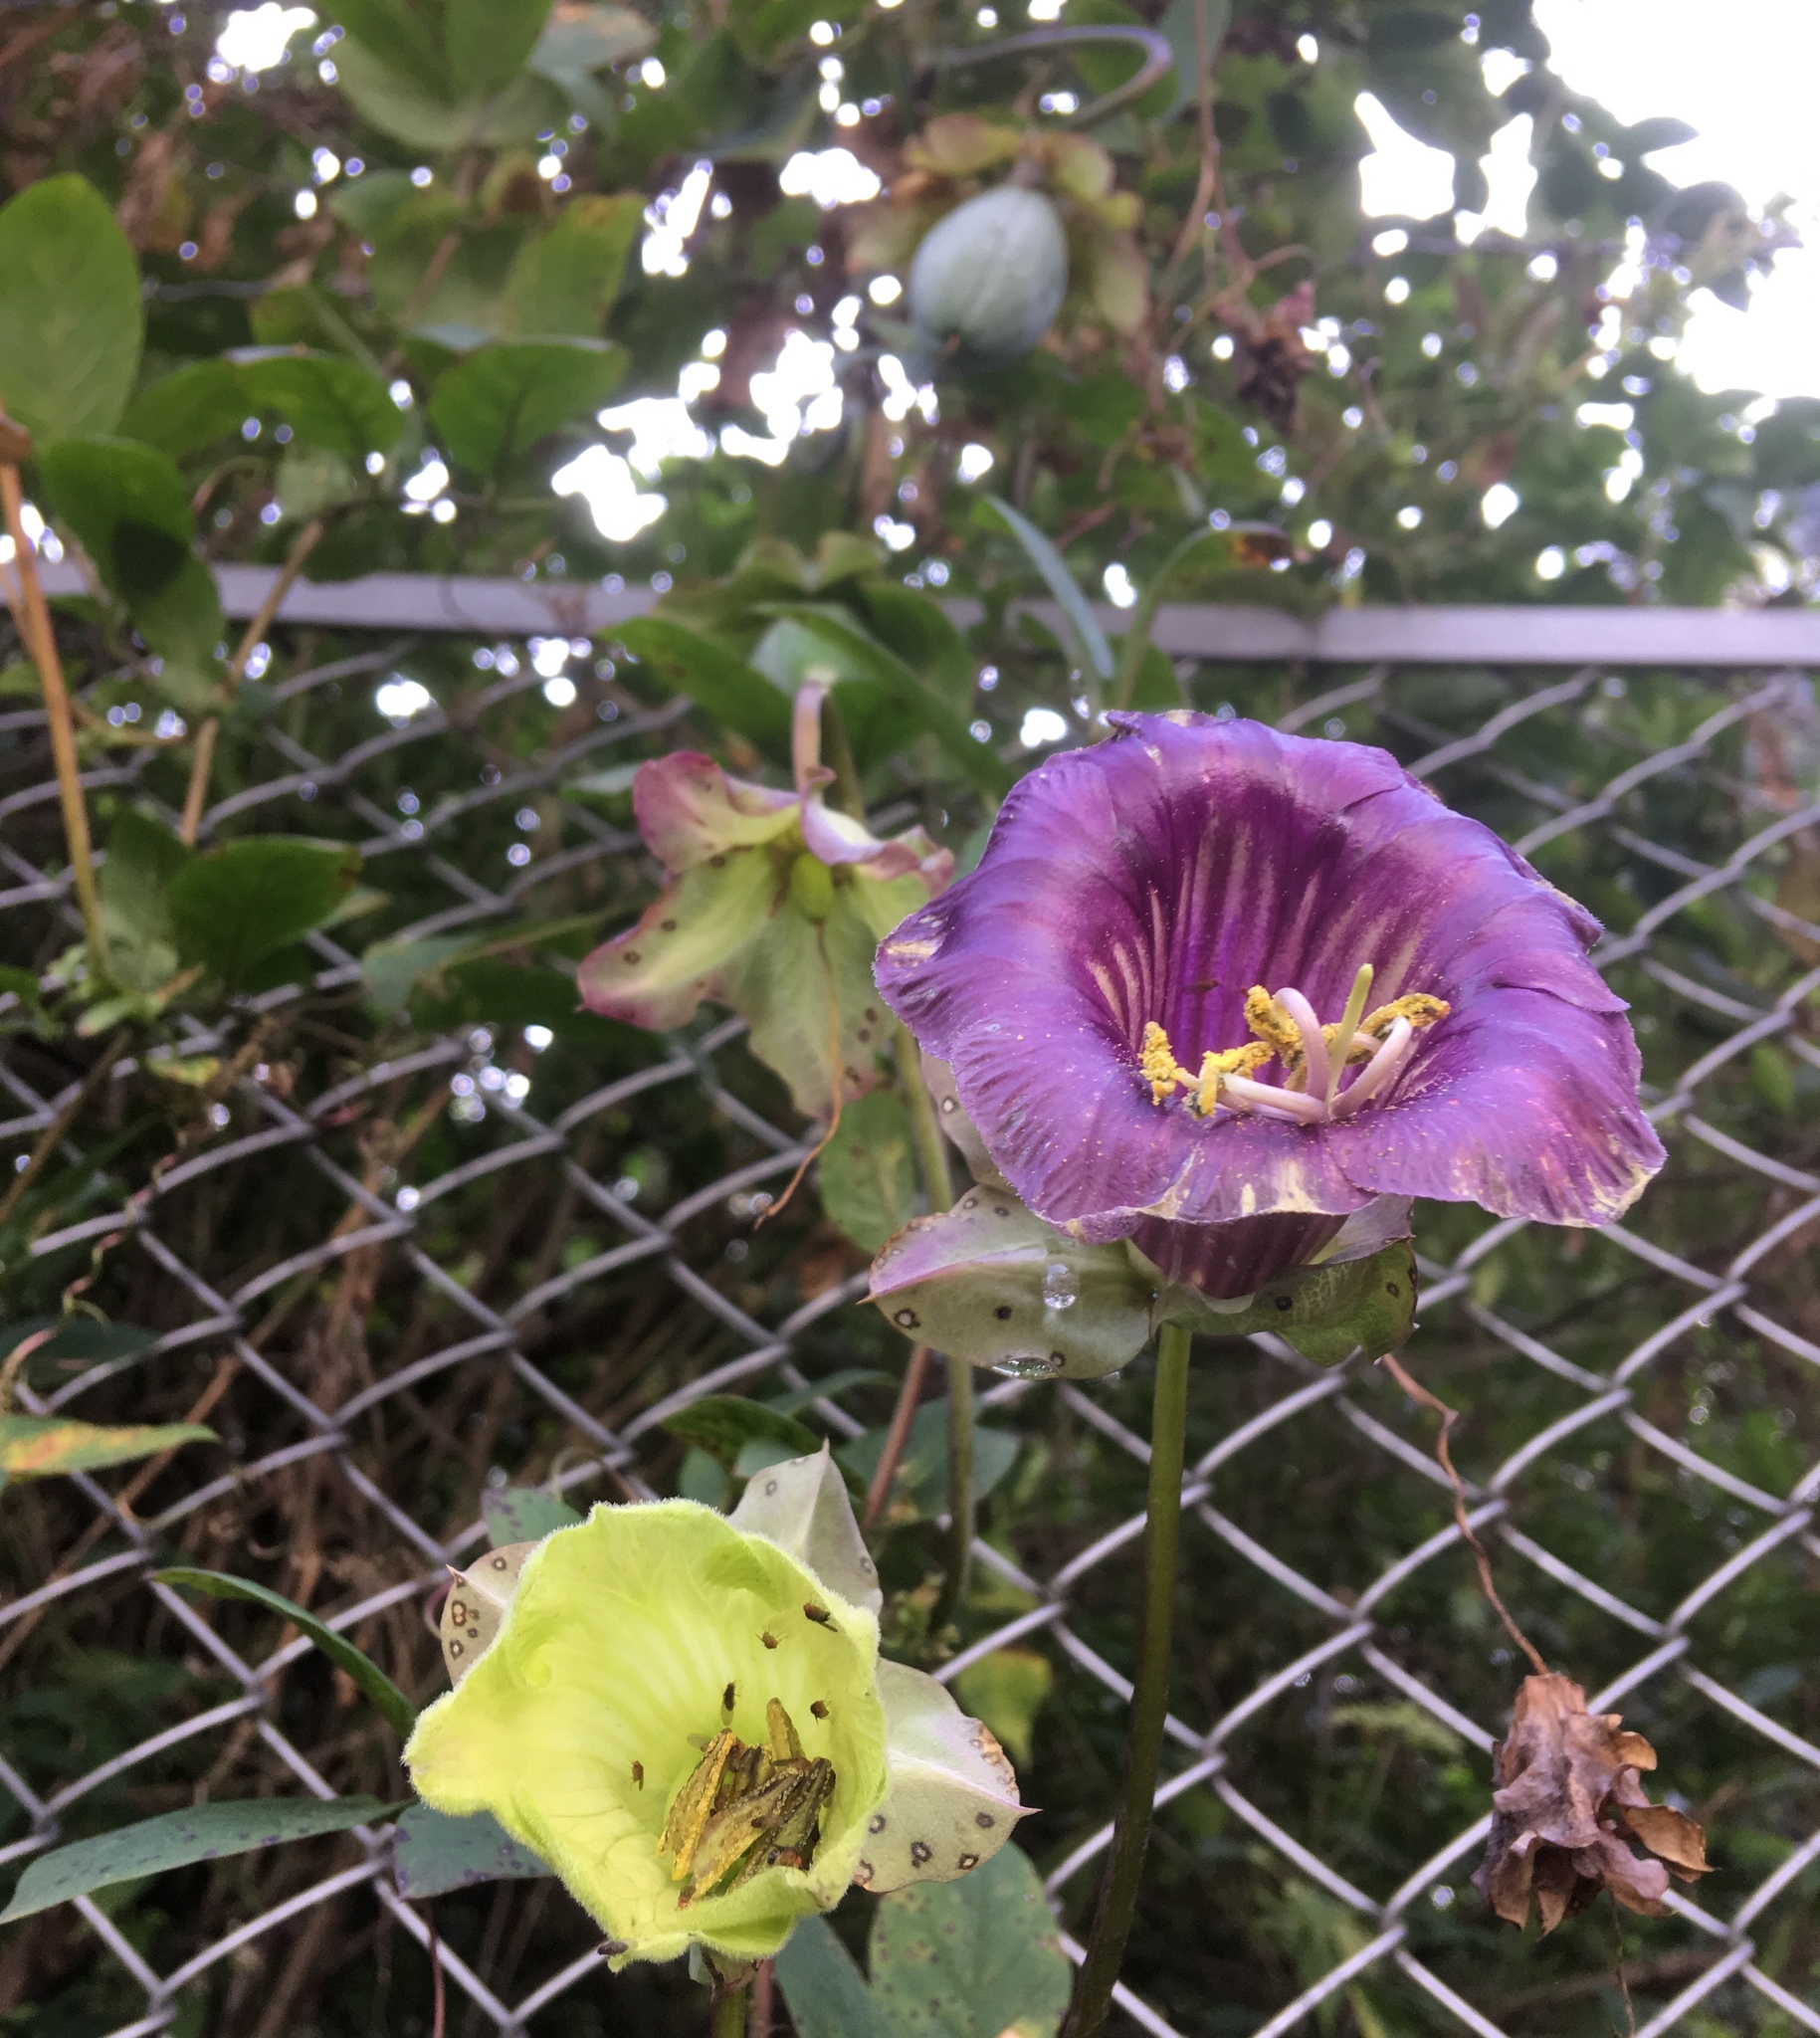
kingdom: Plantae
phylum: Tracheophyta
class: Magnoliopsida
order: Ericales
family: Polemoniaceae
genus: Cobaea
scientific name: Cobaea scandens
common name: Cup-and-saucer-vine
